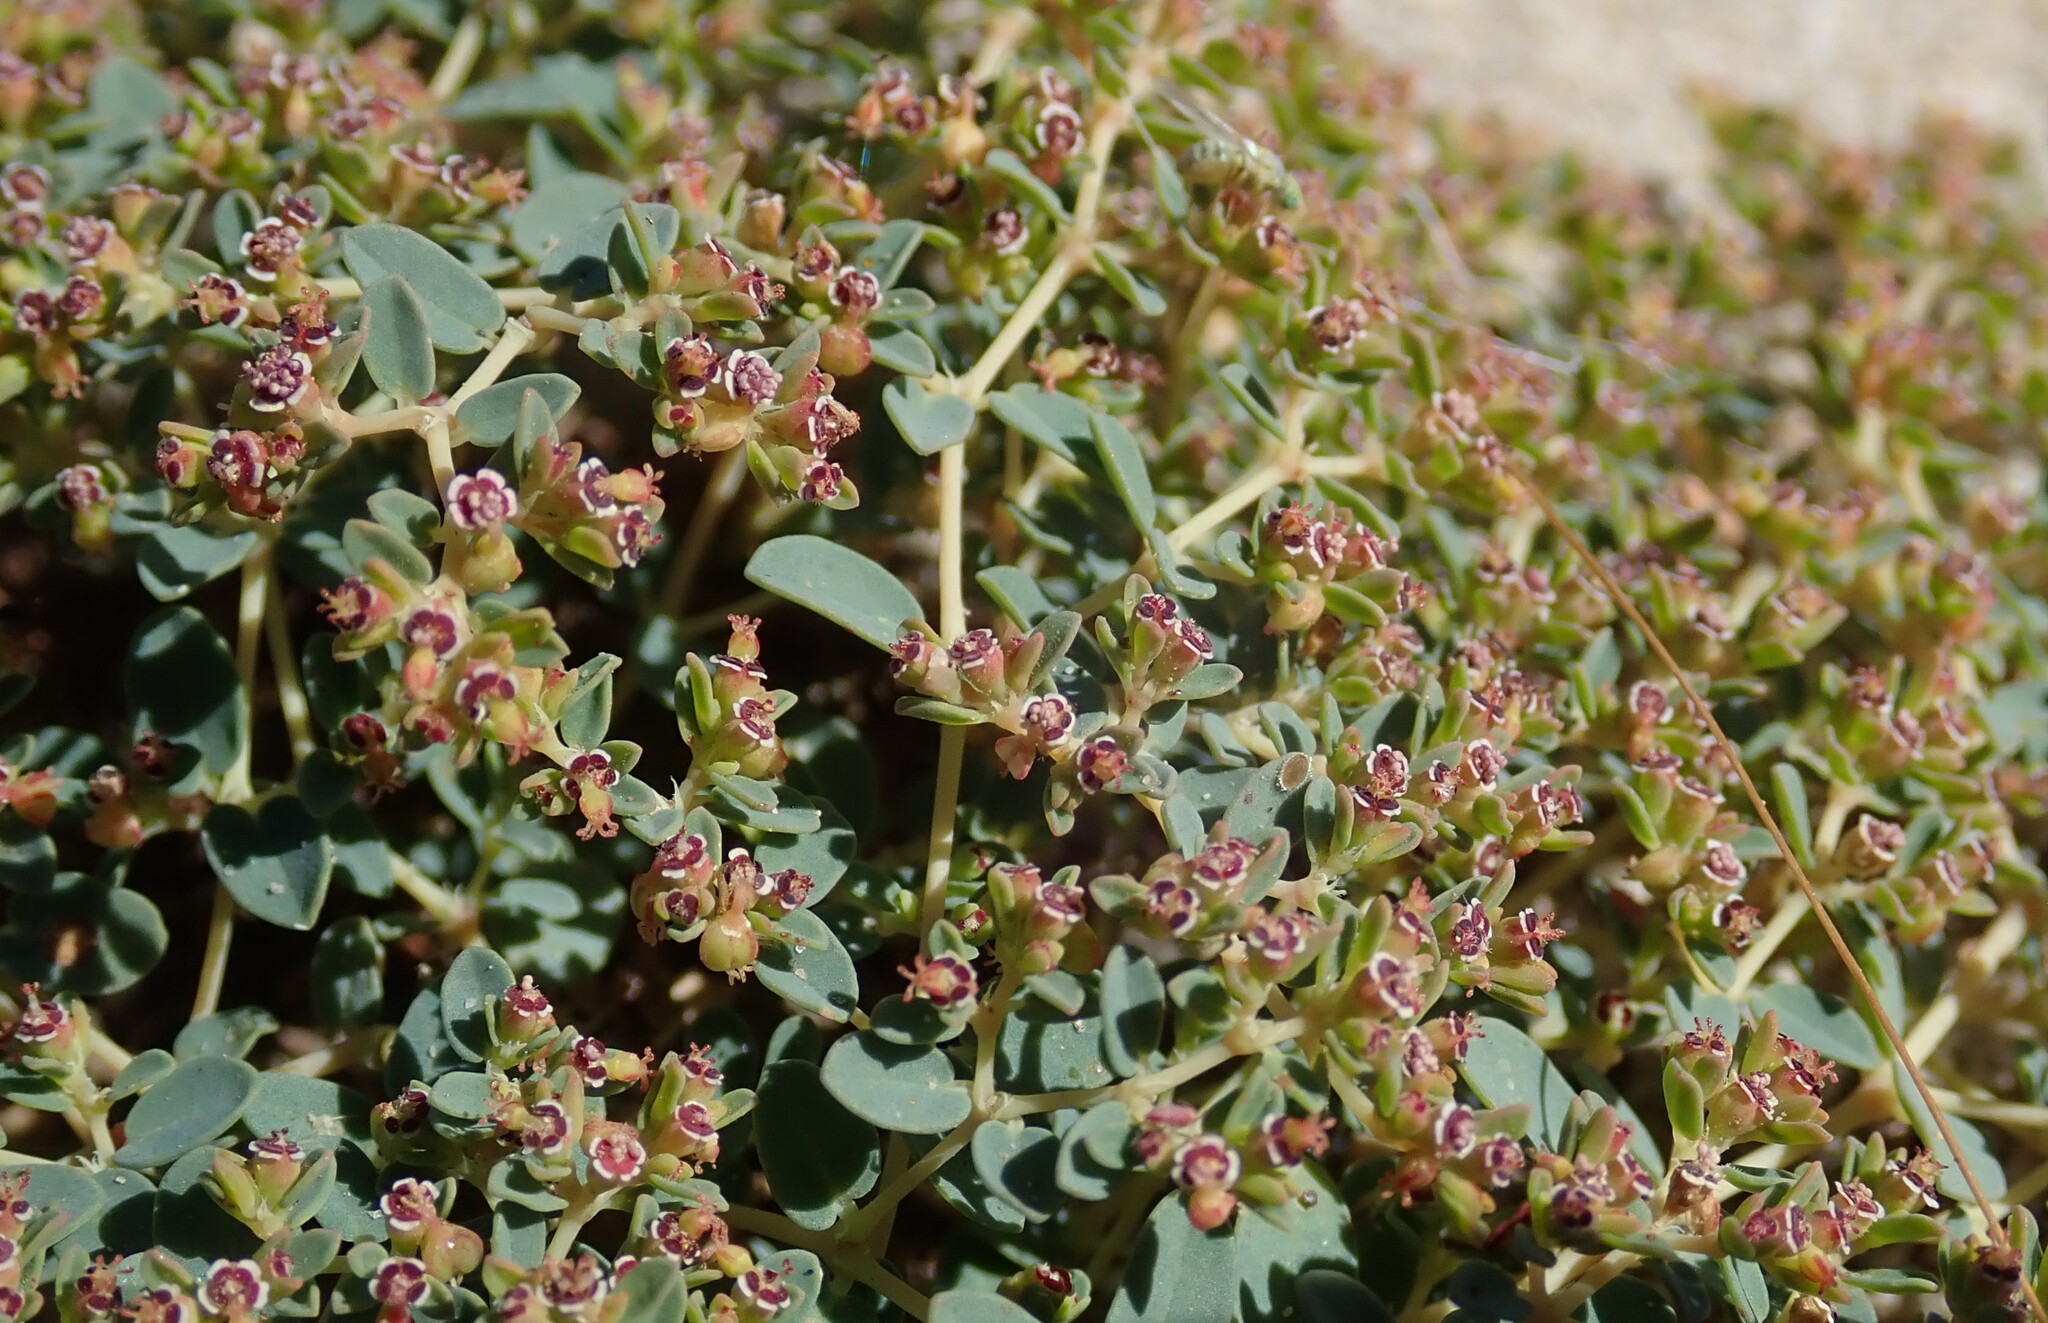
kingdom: Plantae
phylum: Tracheophyta
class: Magnoliopsida
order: Malpighiales
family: Euphorbiaceae
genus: Euphorbia
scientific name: Euphorbia polycarpa
